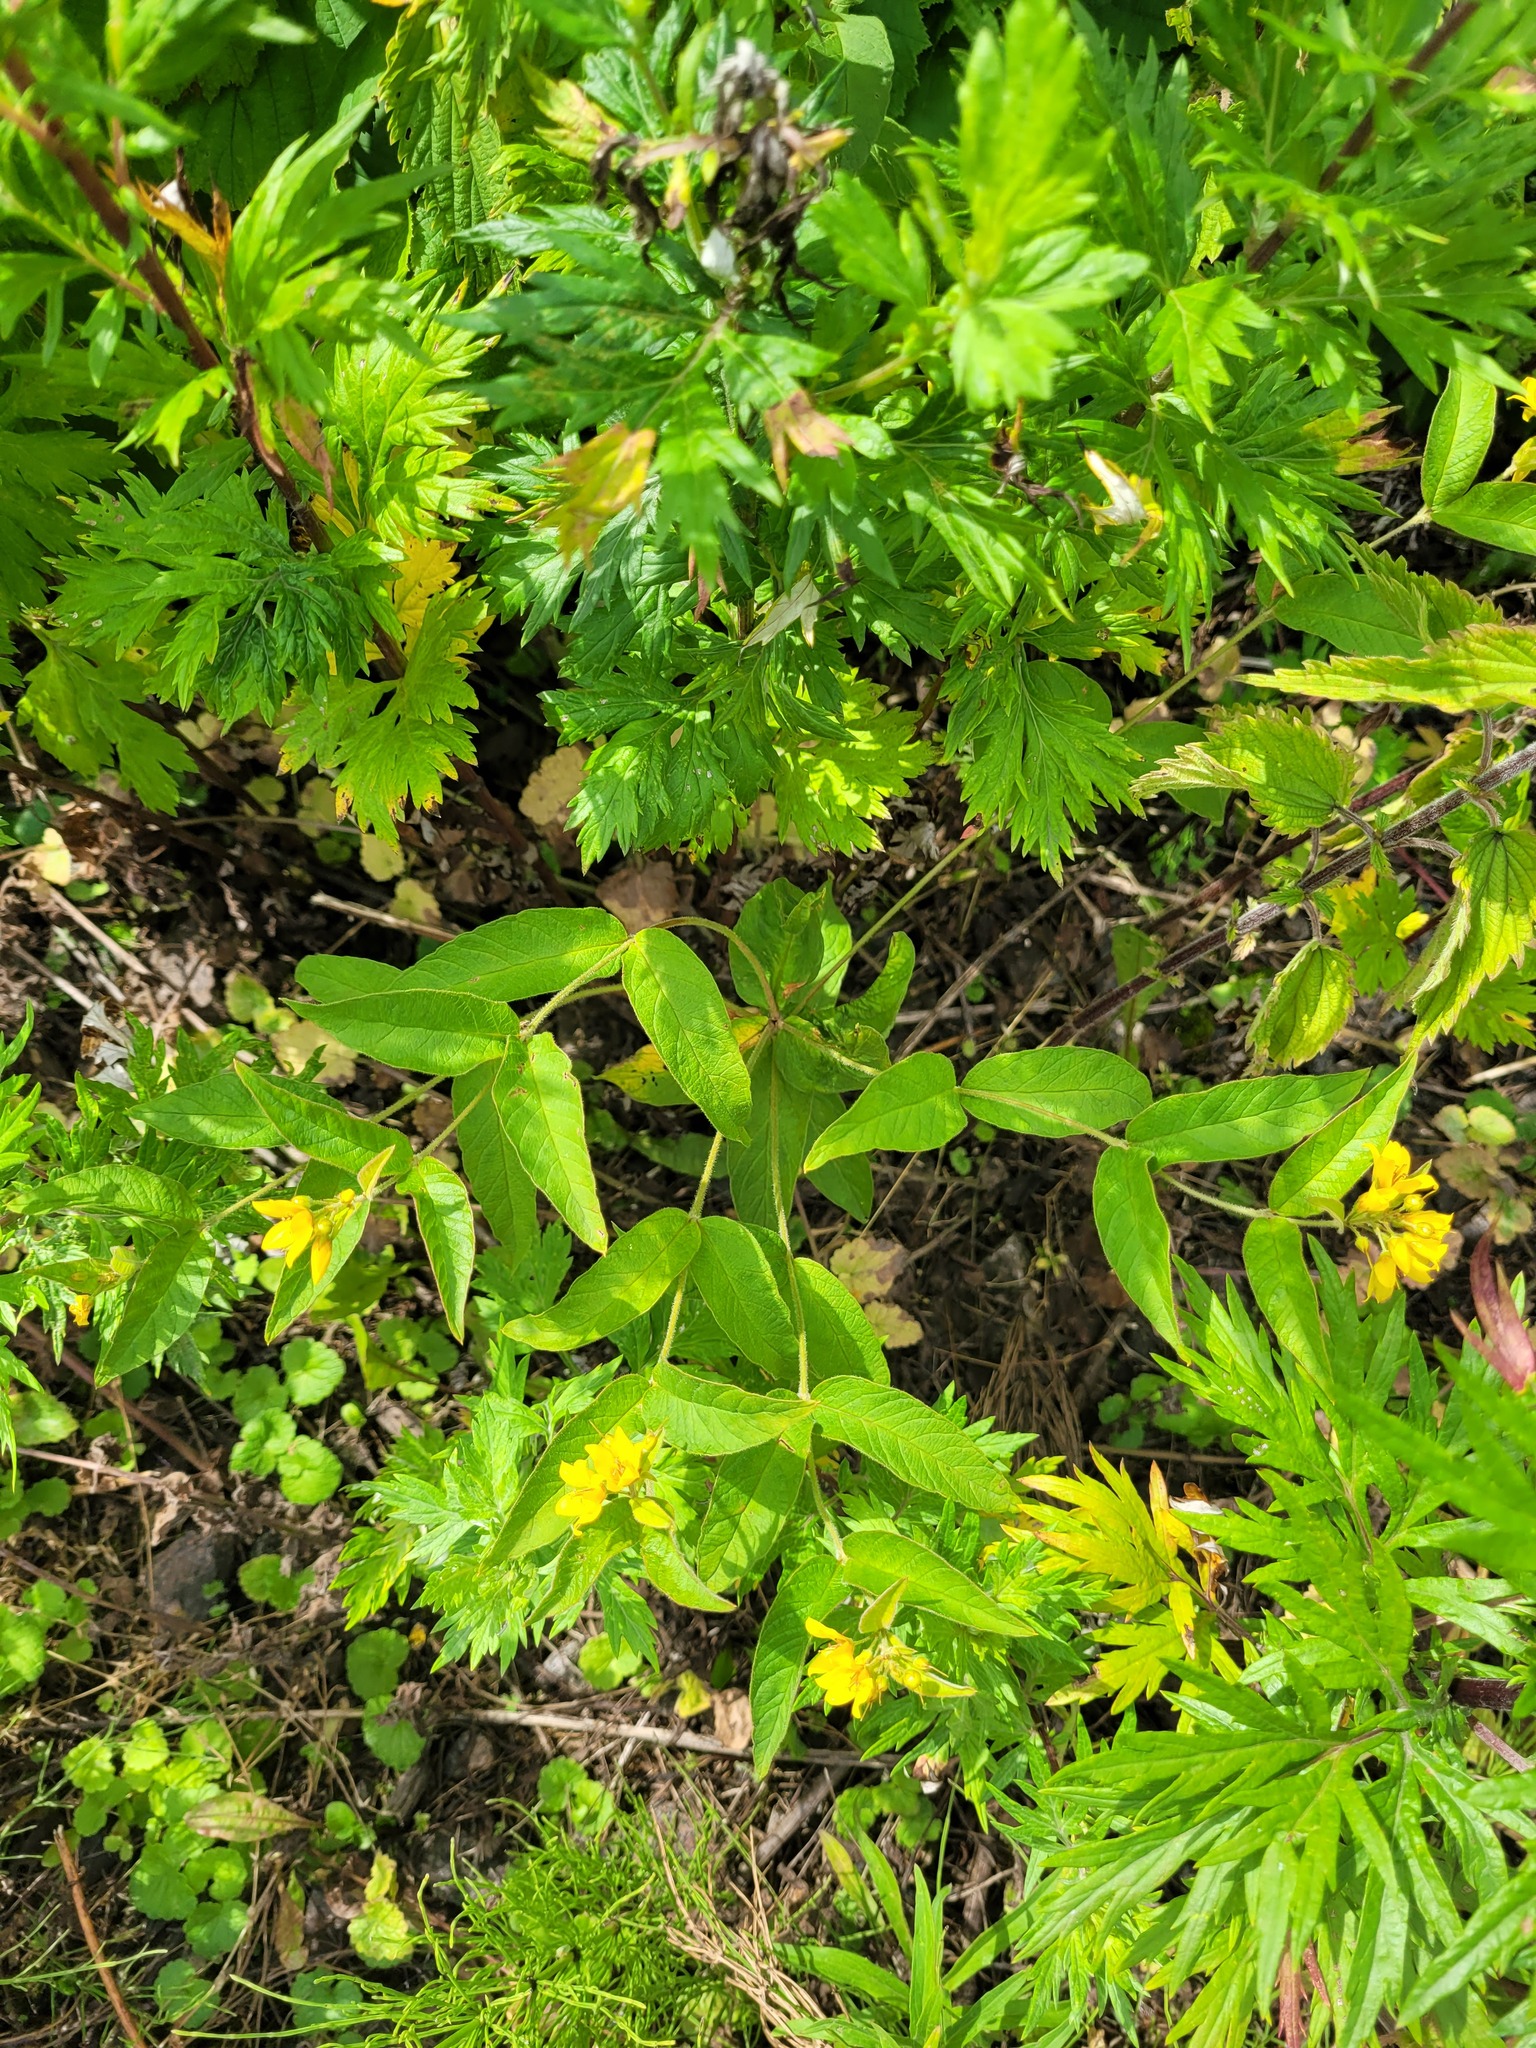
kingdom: Plantae
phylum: Tracheophyta
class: Magnoliopsida
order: Ericales
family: Primulaceae
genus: Lysimachia
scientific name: Lysimachia vulgaris
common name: Yellow loosestrife
